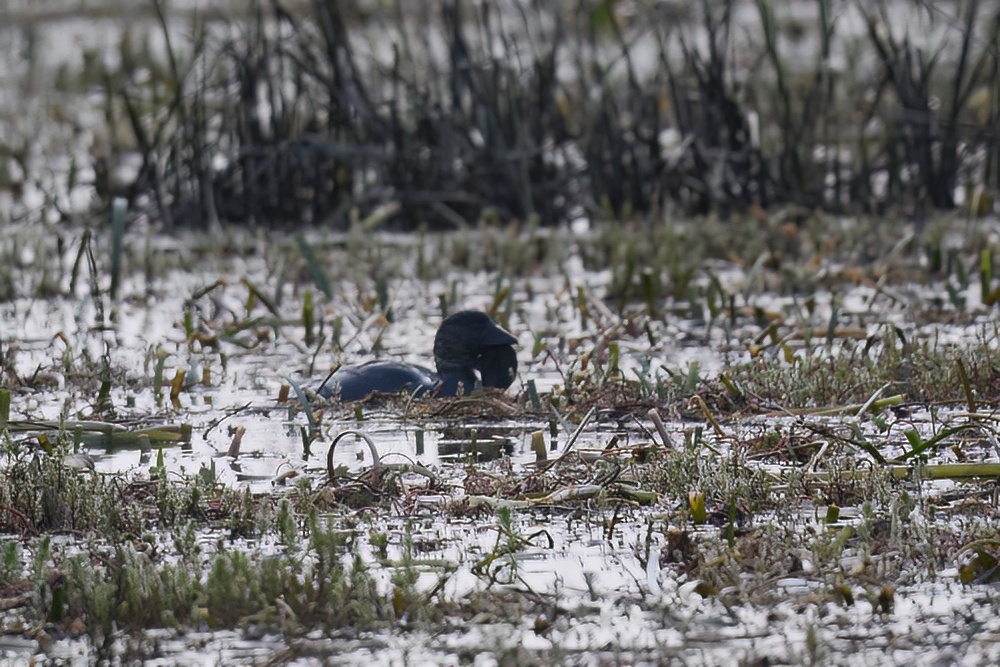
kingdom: Animalia
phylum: Chordata
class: Aves
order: Anseriformes
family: Anatidae
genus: Biziura
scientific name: Biziura lobata
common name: Musk duck
